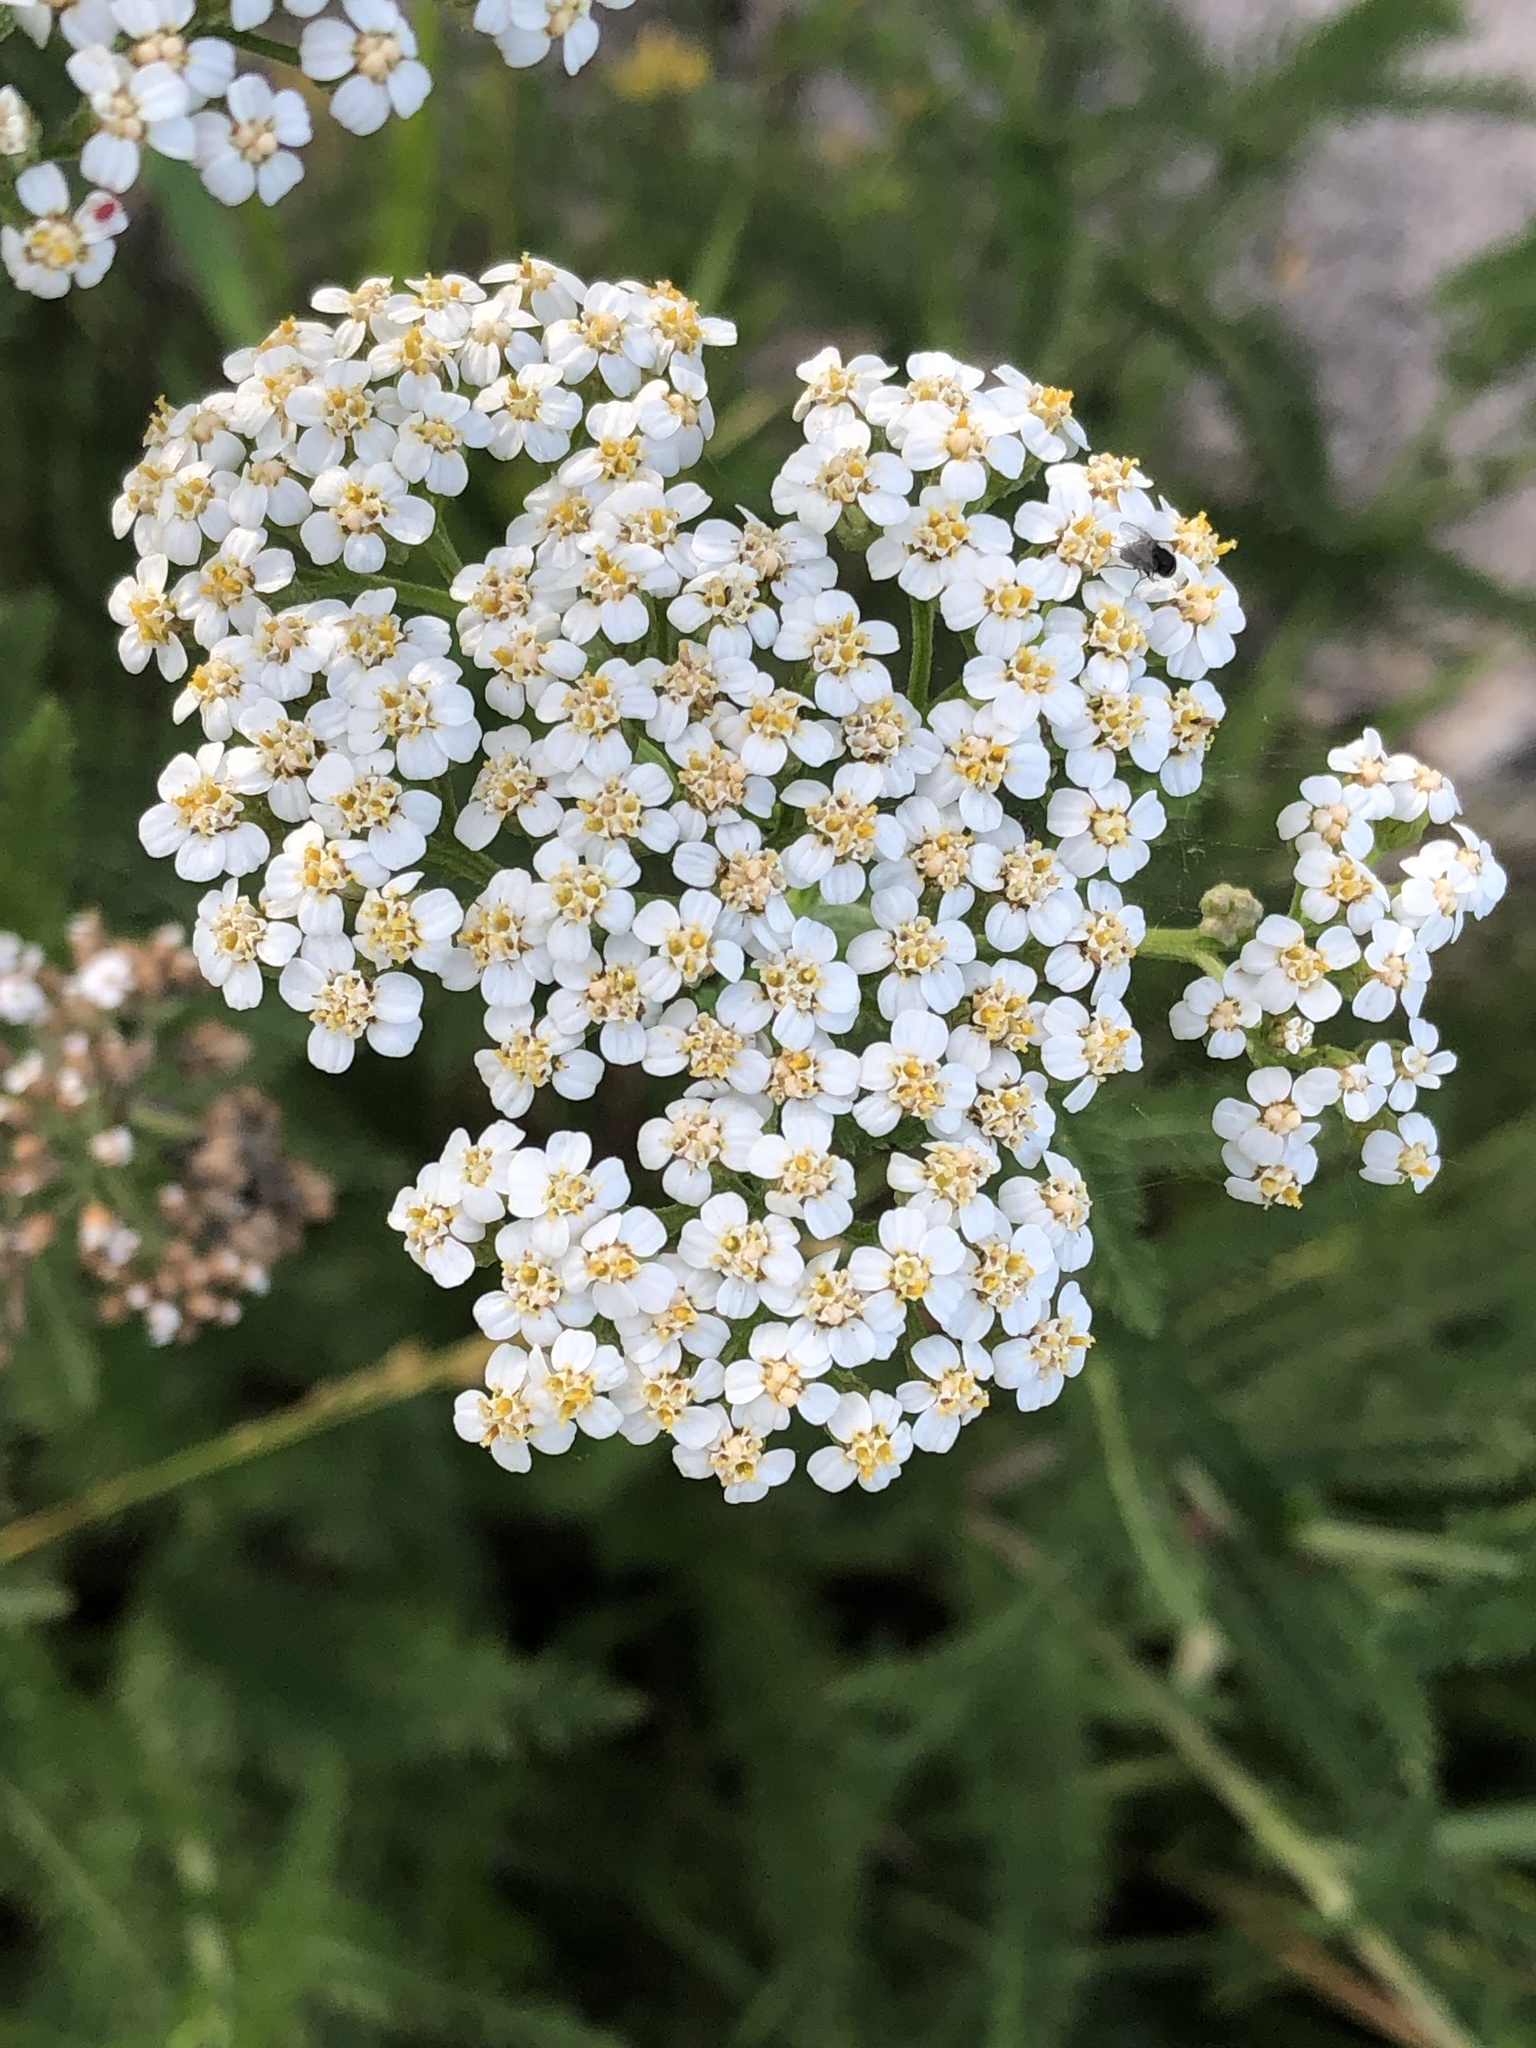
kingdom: Plantae
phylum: Tracheophyta
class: Magnoliopsida
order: Asterales
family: Asteraceae
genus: Achillea
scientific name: Achillea millefolium
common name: Yarrow
